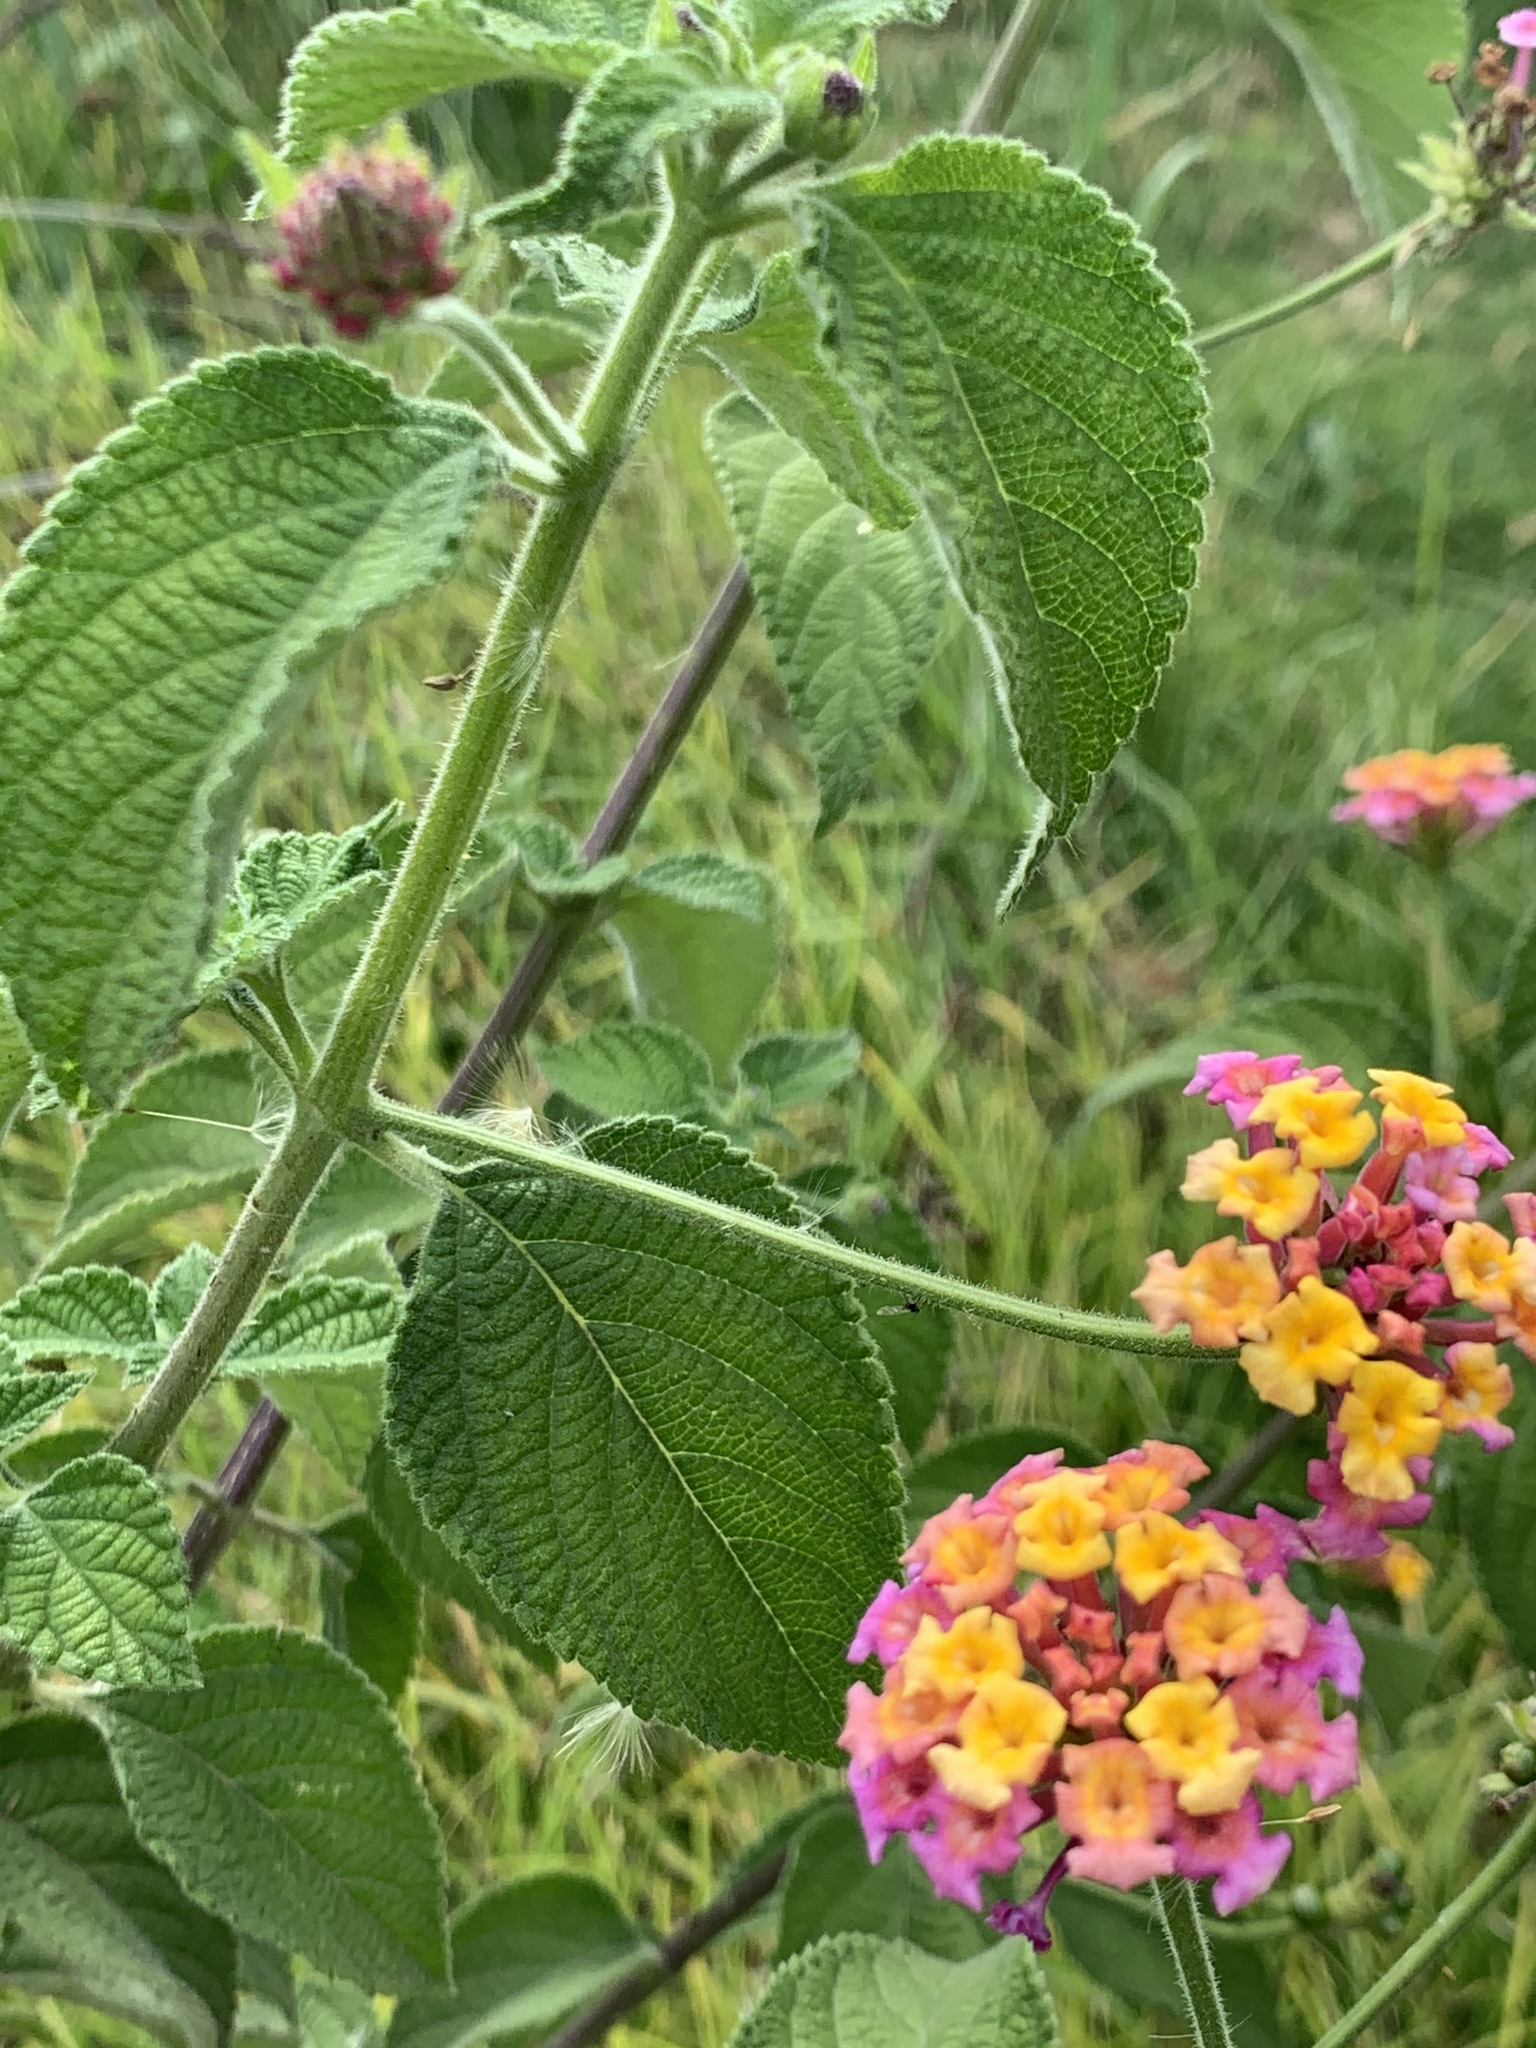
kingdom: Plantae
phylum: Tracheophyta
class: Magnoliopsida
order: Lamiales
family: Verbenaceae
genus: Lantana
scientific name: Lantana camara
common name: Lantana
